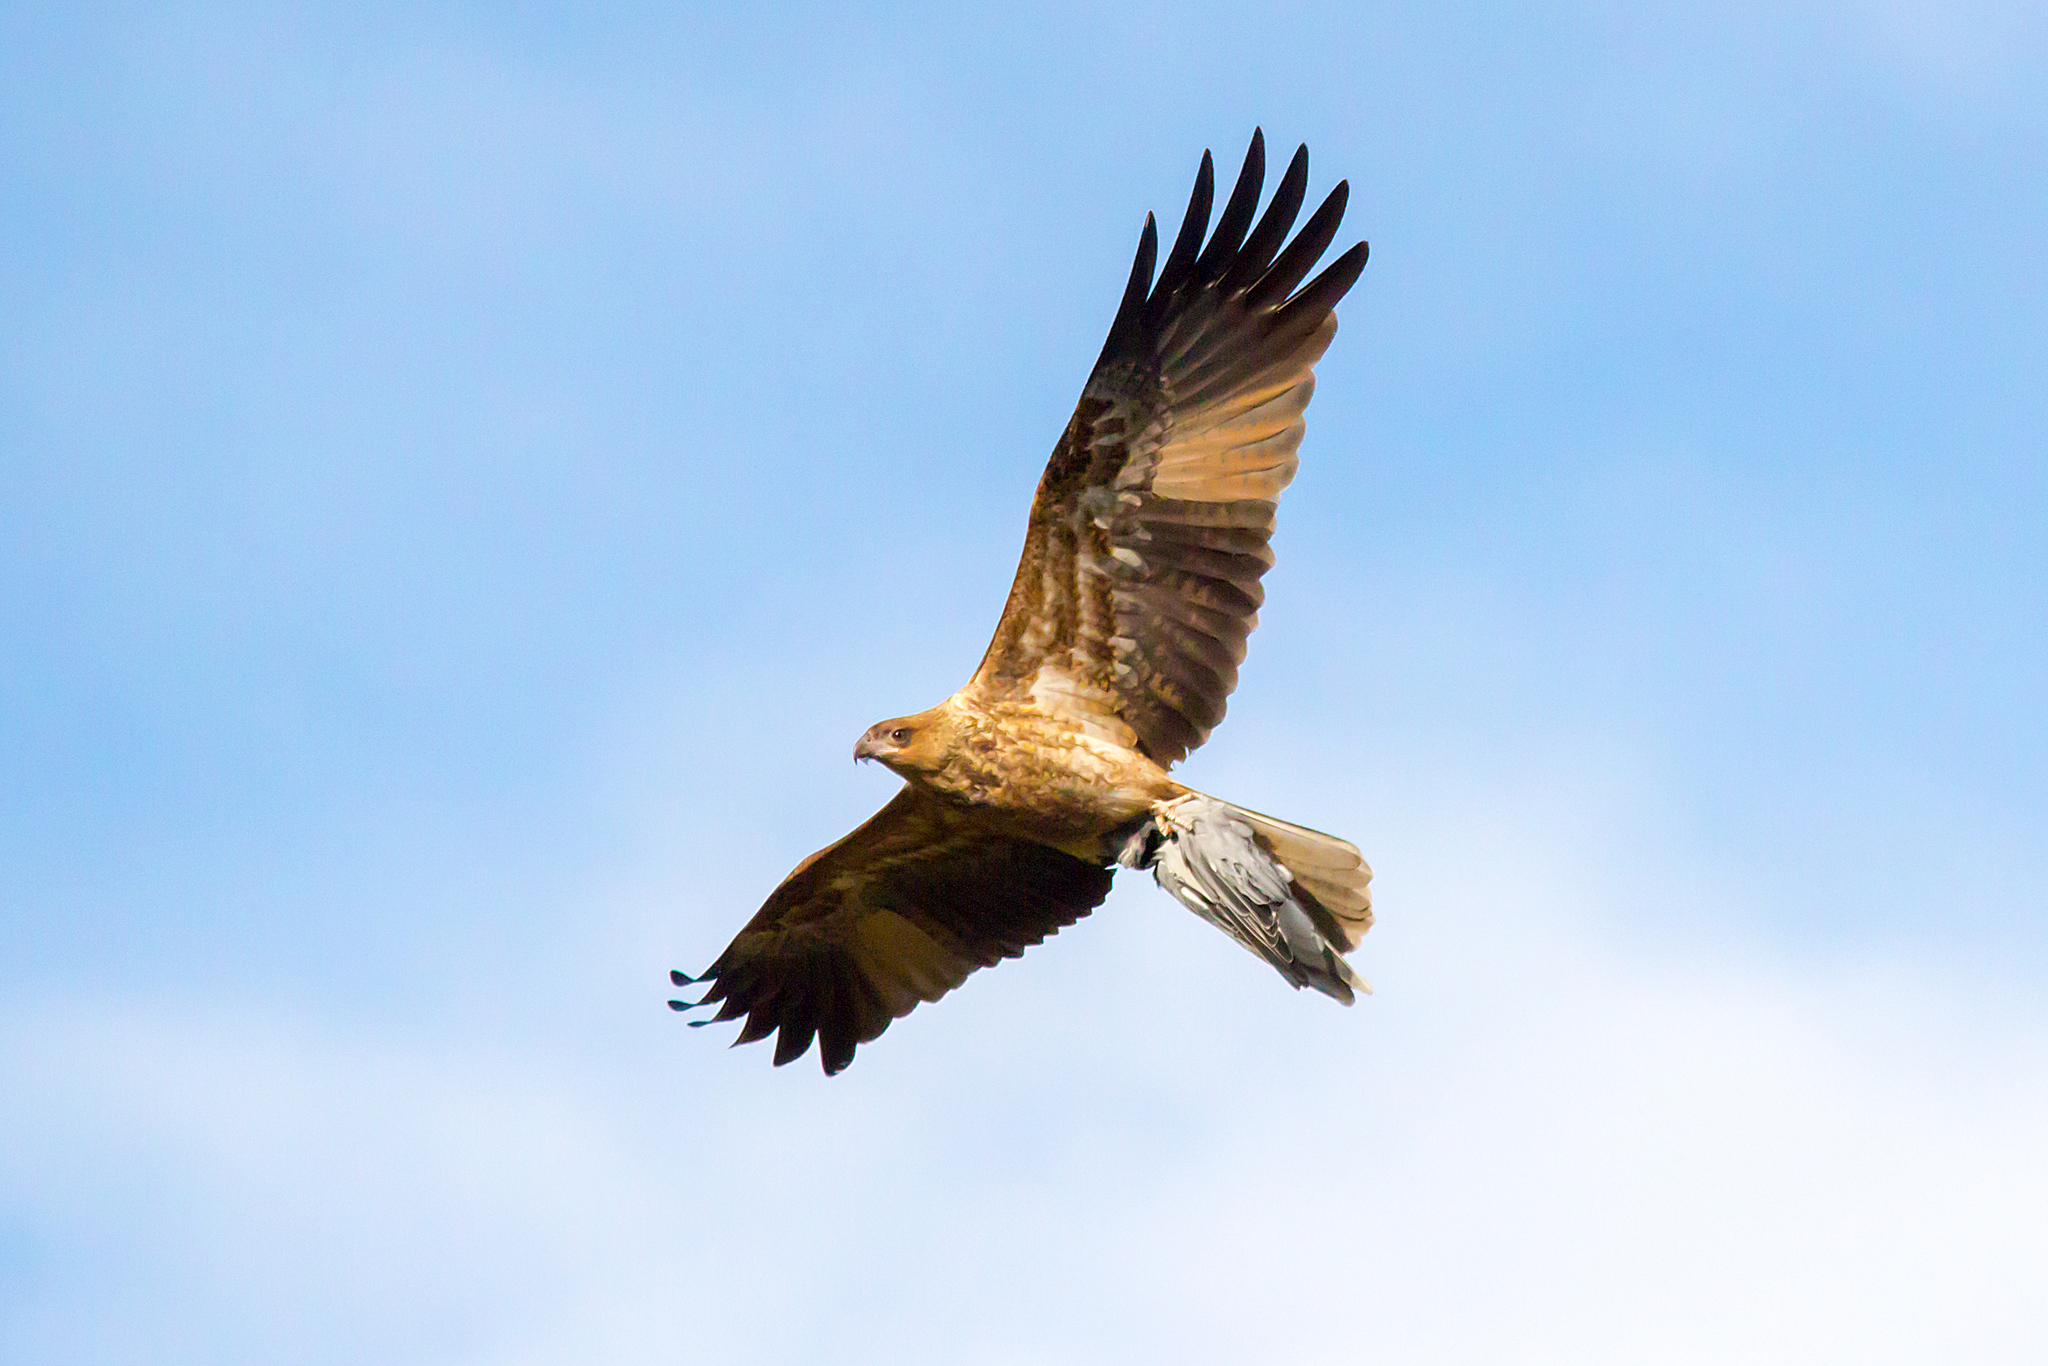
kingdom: Animalia
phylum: Chordata
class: Aves
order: Accipitriformes
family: Accipitridae
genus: Haliastur
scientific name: Haliastur sphenurus
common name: Whistling kite
